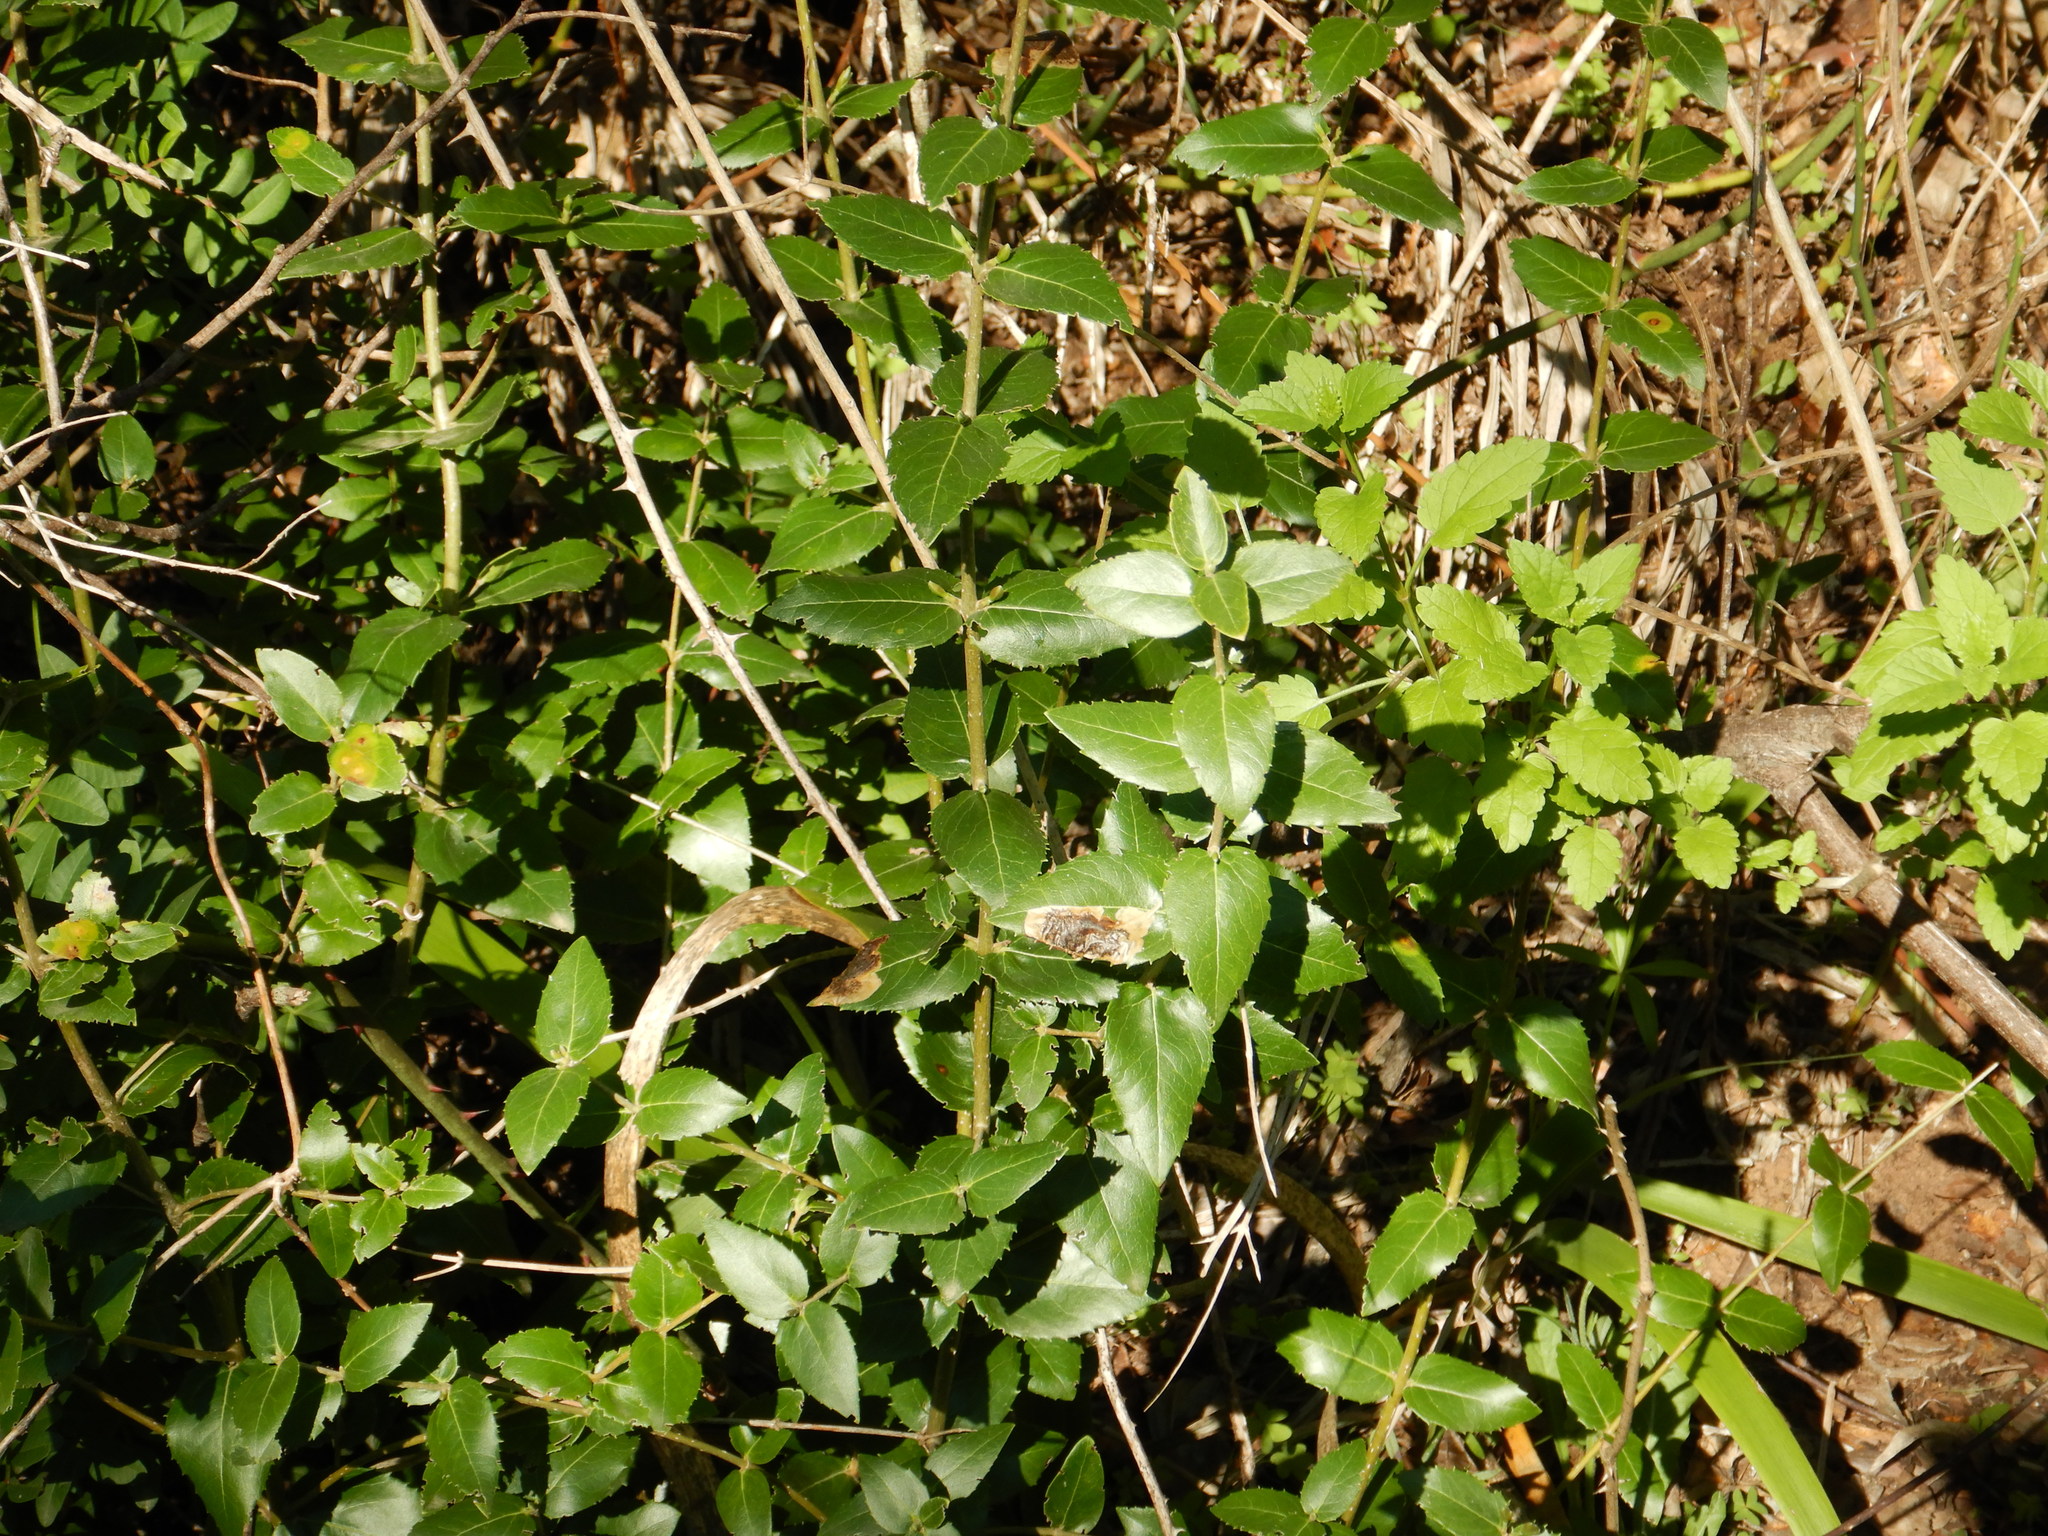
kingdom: Plantae
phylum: Tracheophyta
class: Magnoliopsida
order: Lamiales
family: Oleaceae
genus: Phillyrea
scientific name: Phillyrea latifolia
